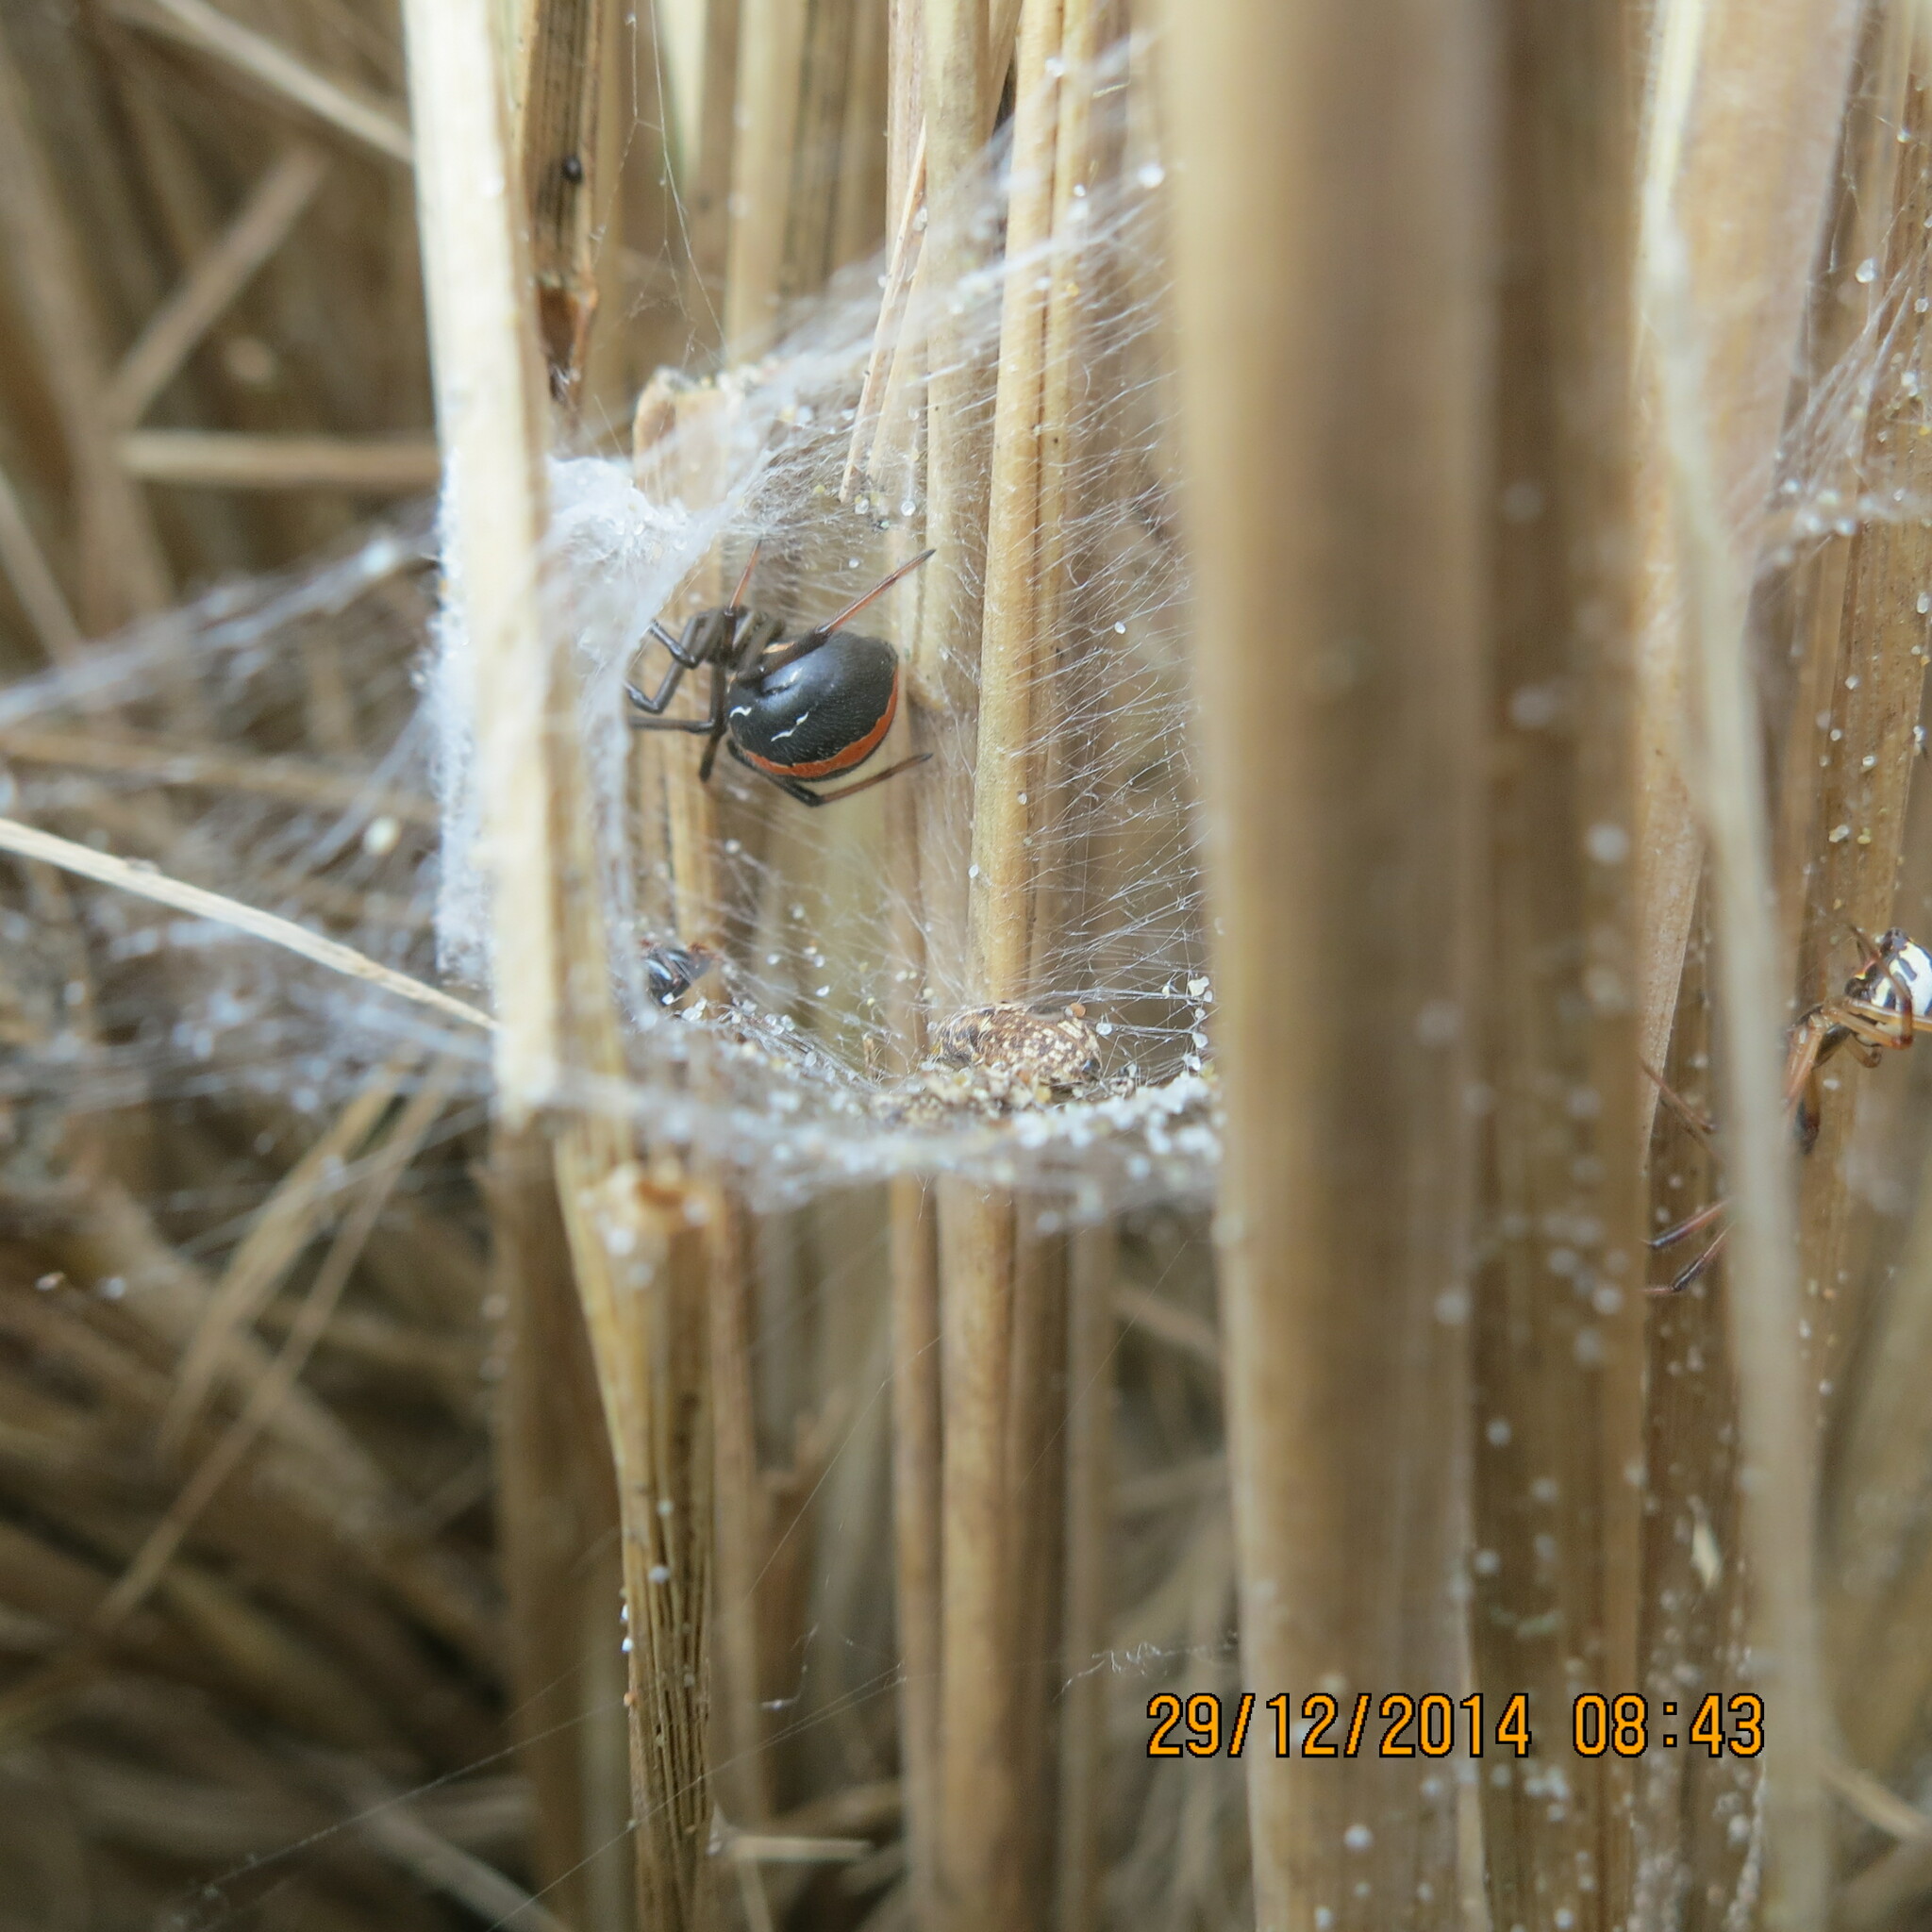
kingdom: Animalia
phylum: Arthropoda
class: Arachnida
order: Araneae
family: Theridiidae
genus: Latrodectus
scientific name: Latrodectus katipo
